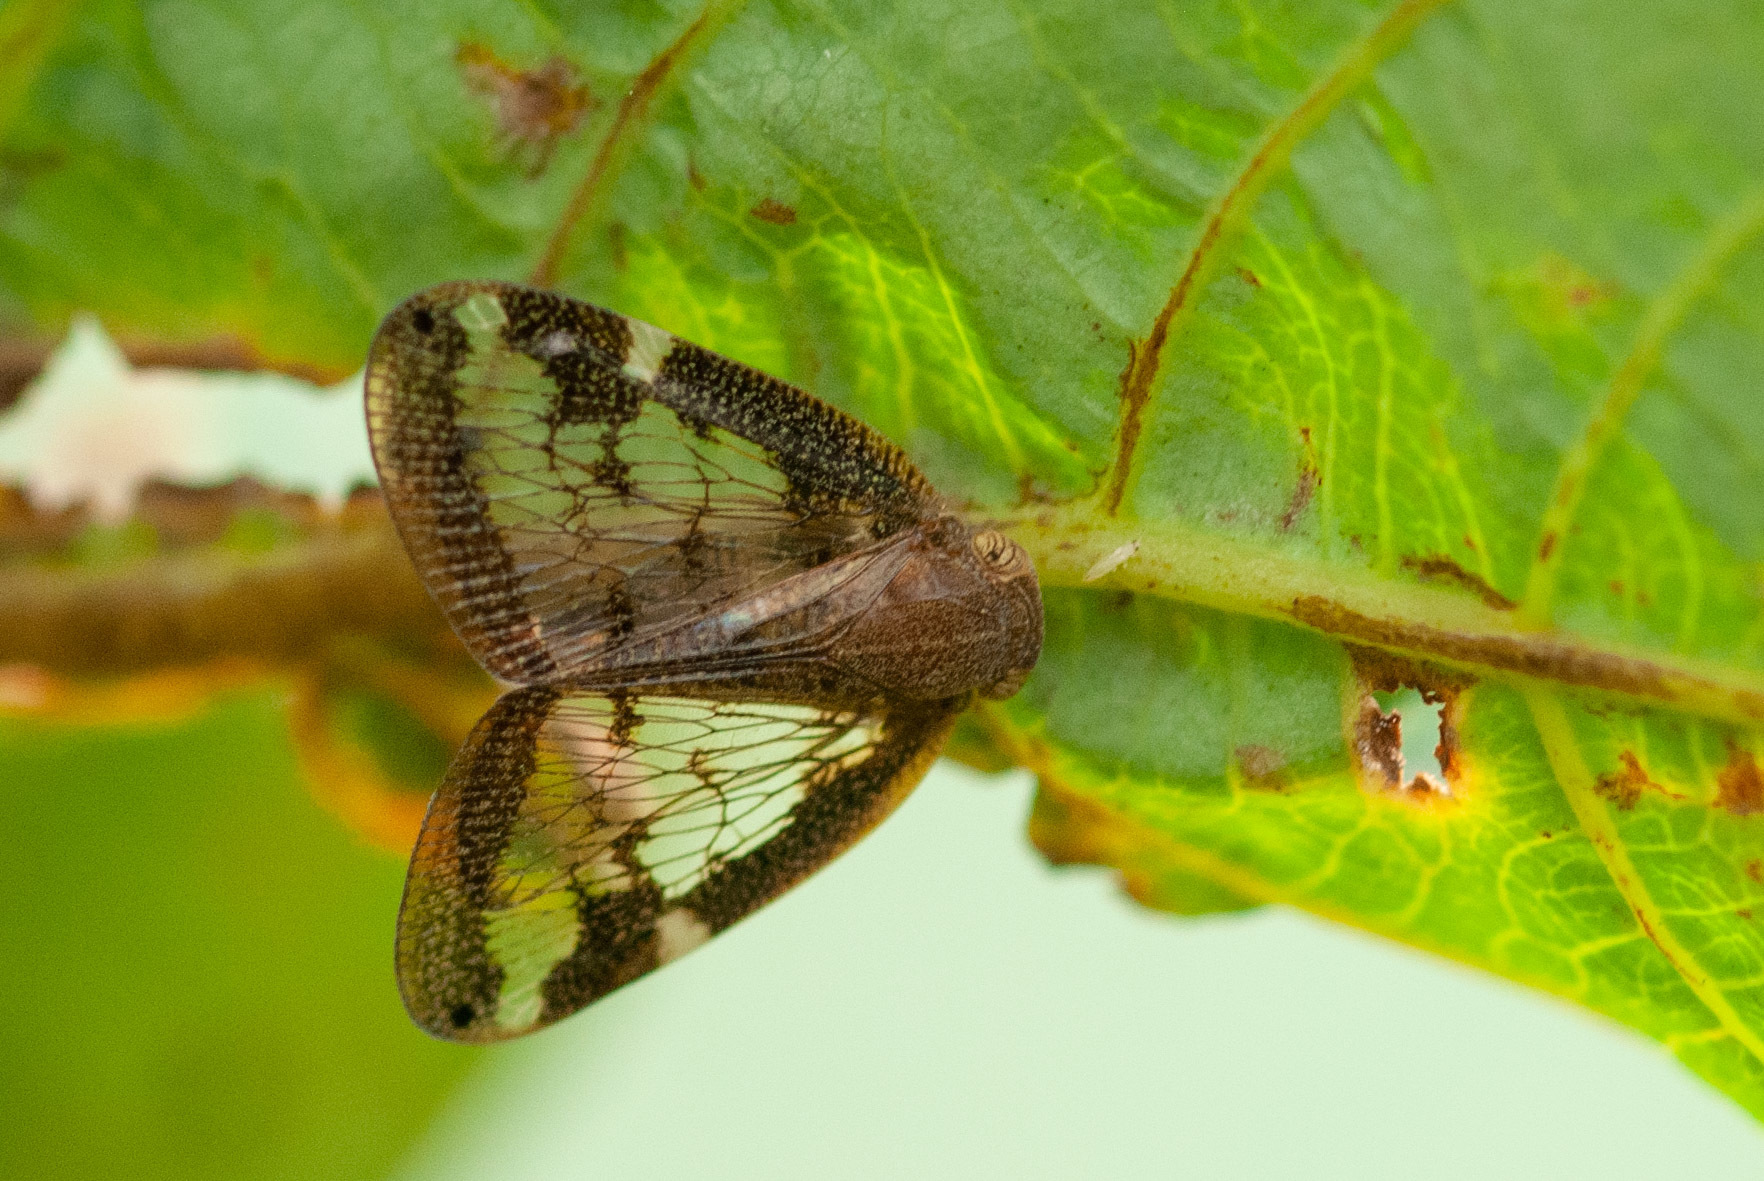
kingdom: Animalia
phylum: Arthropoda
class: Insecta
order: Hemiptera
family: Ricaniidae
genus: Scolypopa
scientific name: Scolypopa australis
